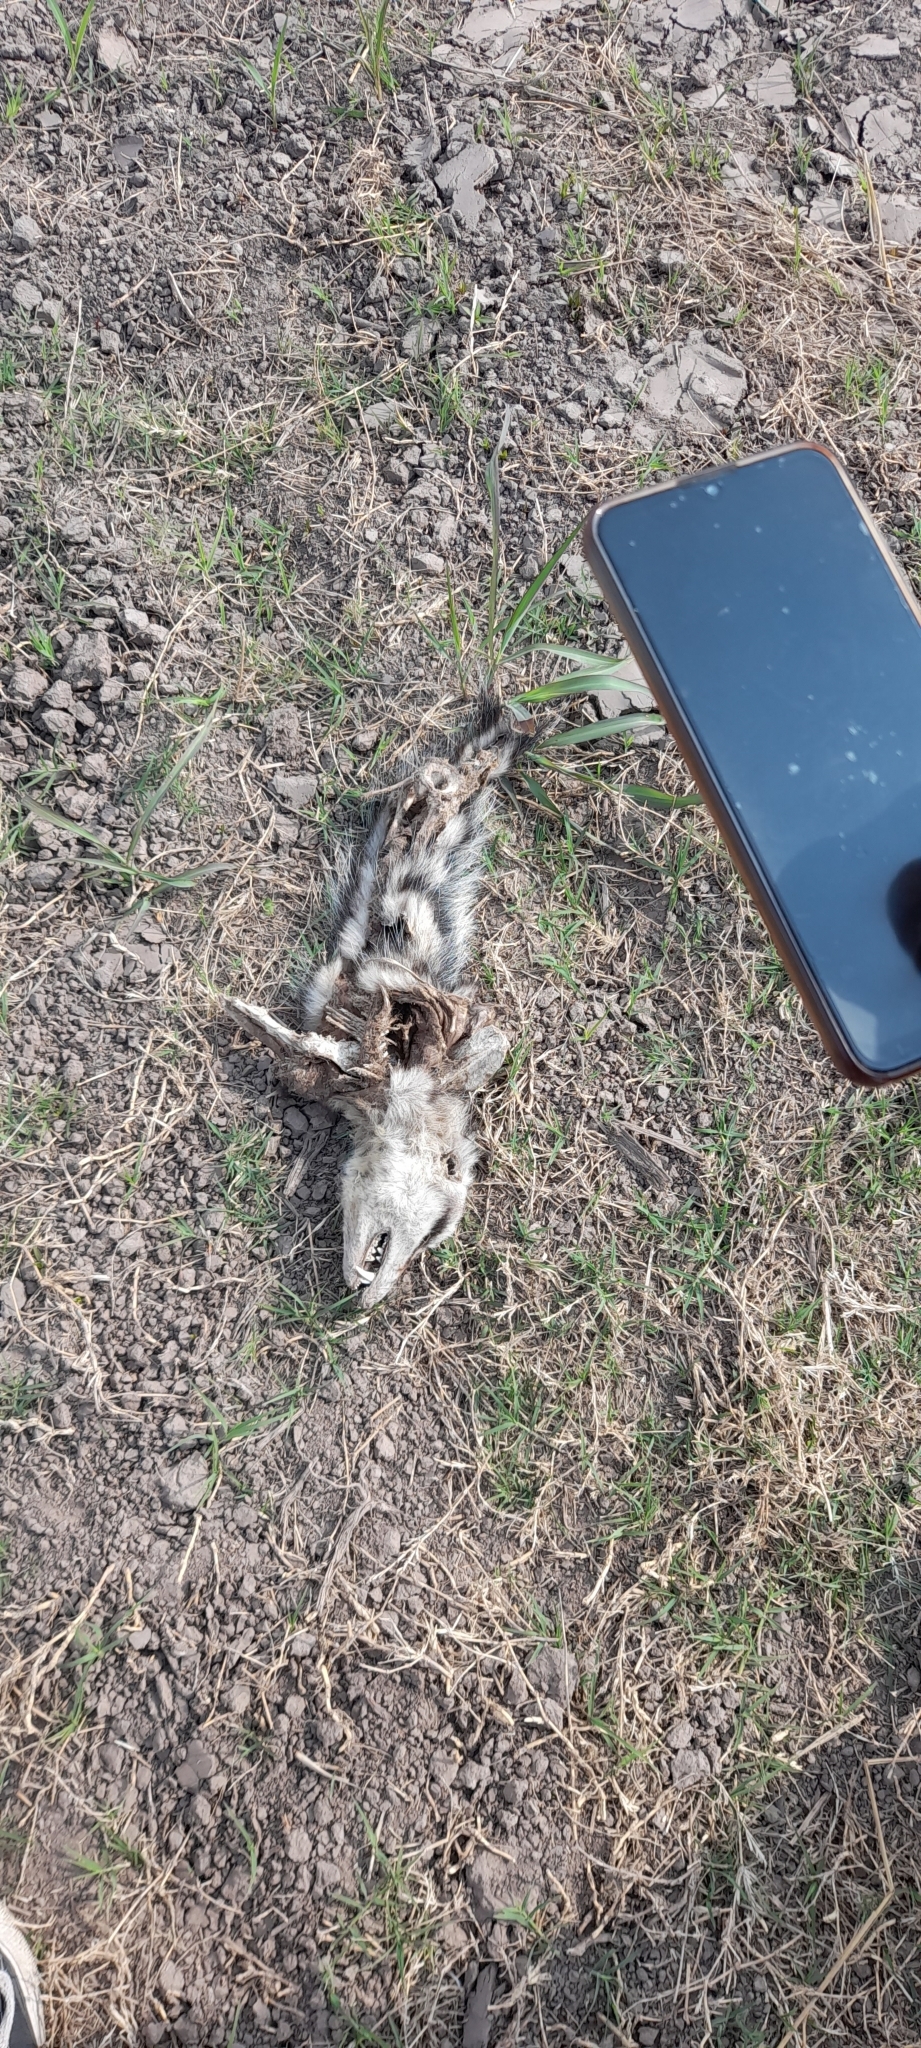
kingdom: Animalia
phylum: Chordata
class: Mammalia
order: Didelphimorphia
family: Didelphidae
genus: Didelphis
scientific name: Didelphis albiventris
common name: White-eared opossum
